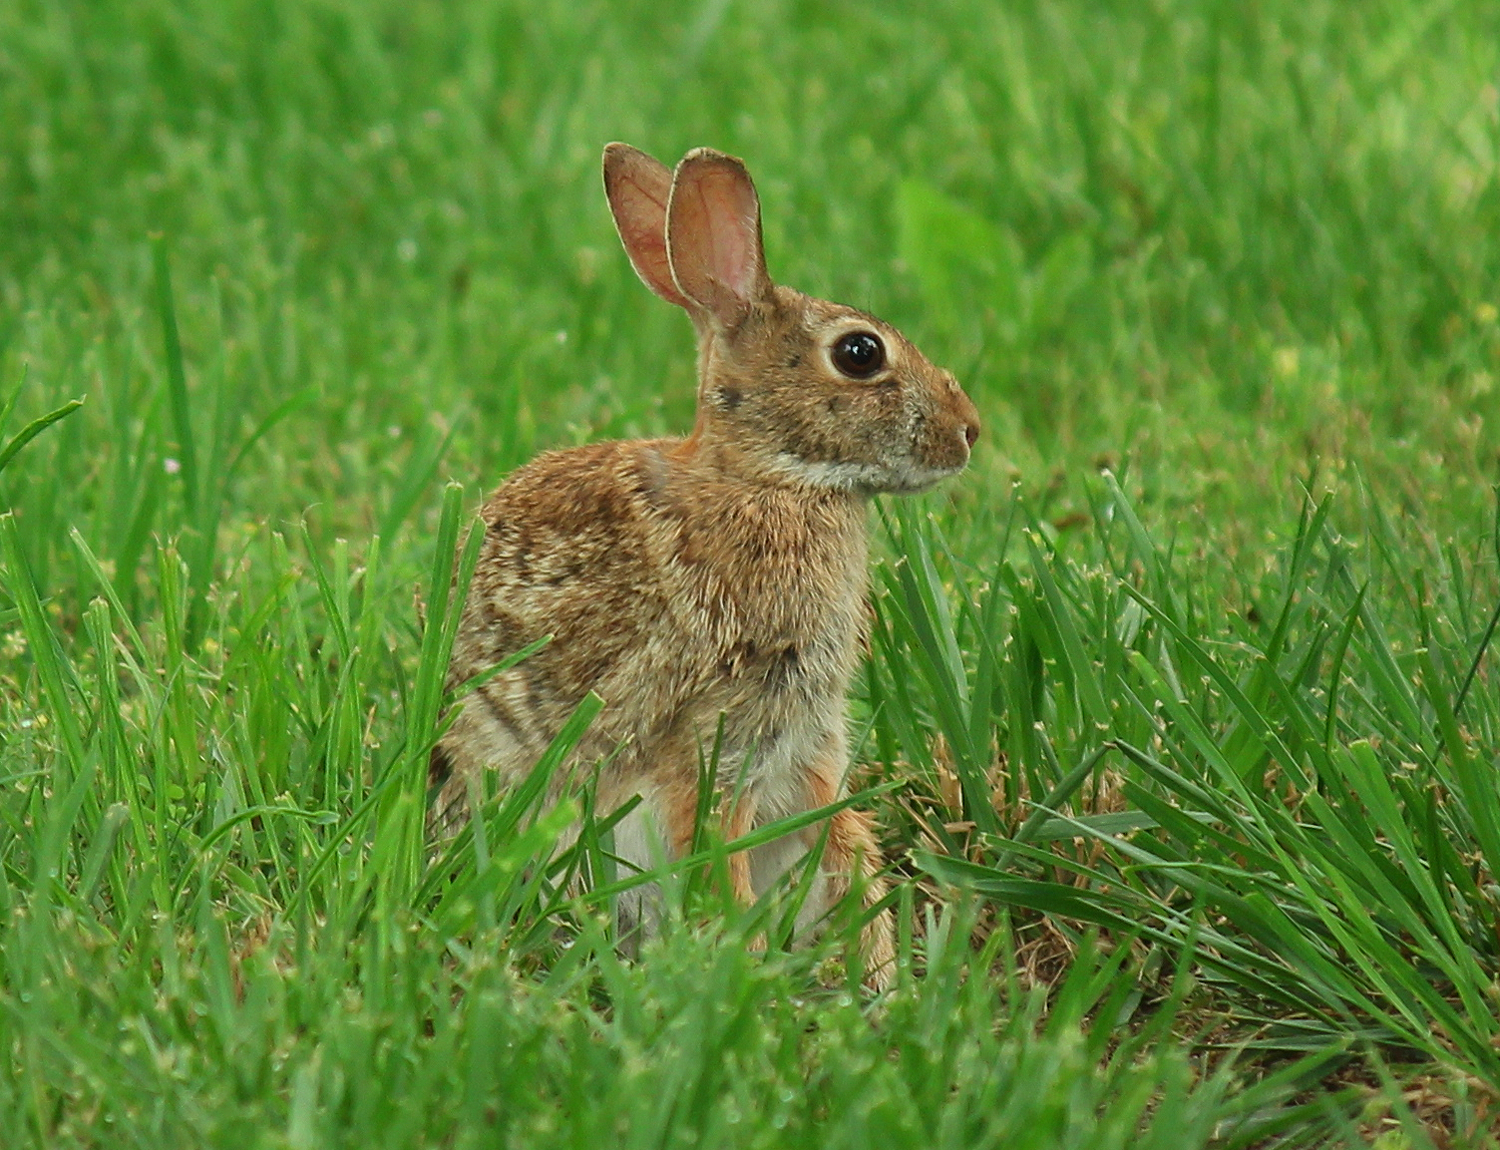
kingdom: Animalia
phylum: Chordata
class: Mammalia
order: Lagomorpha
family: Leporidae
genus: Sylvilagus
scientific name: Sylvilagus floridanus
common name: Eastern cottontail
